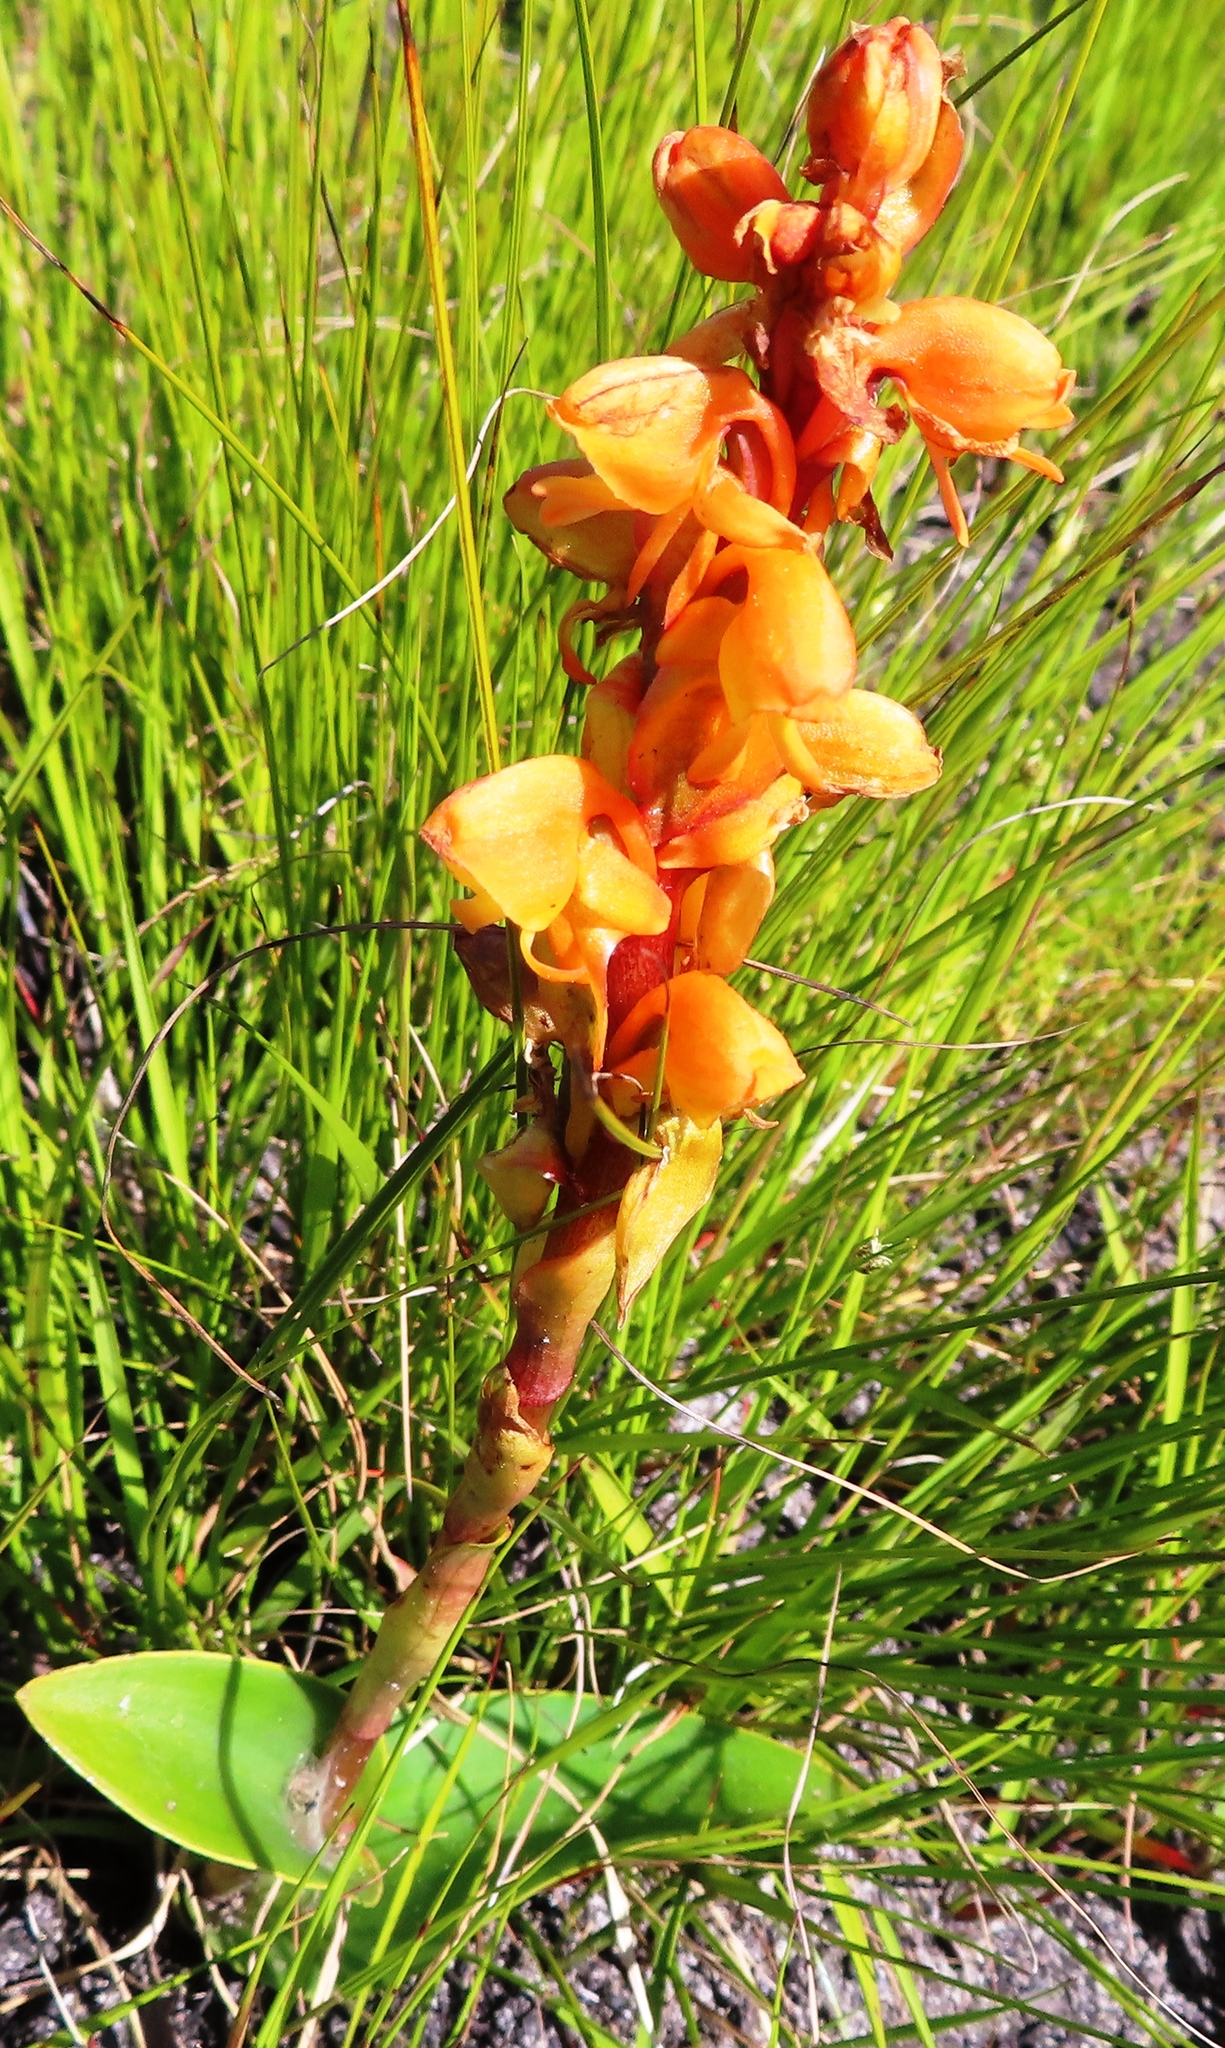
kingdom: Plantae
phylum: Tracheophyta
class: Liliopsida
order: Asparagales
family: Orchidaceae
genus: Satyrium
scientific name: Satyrium coriifolium
